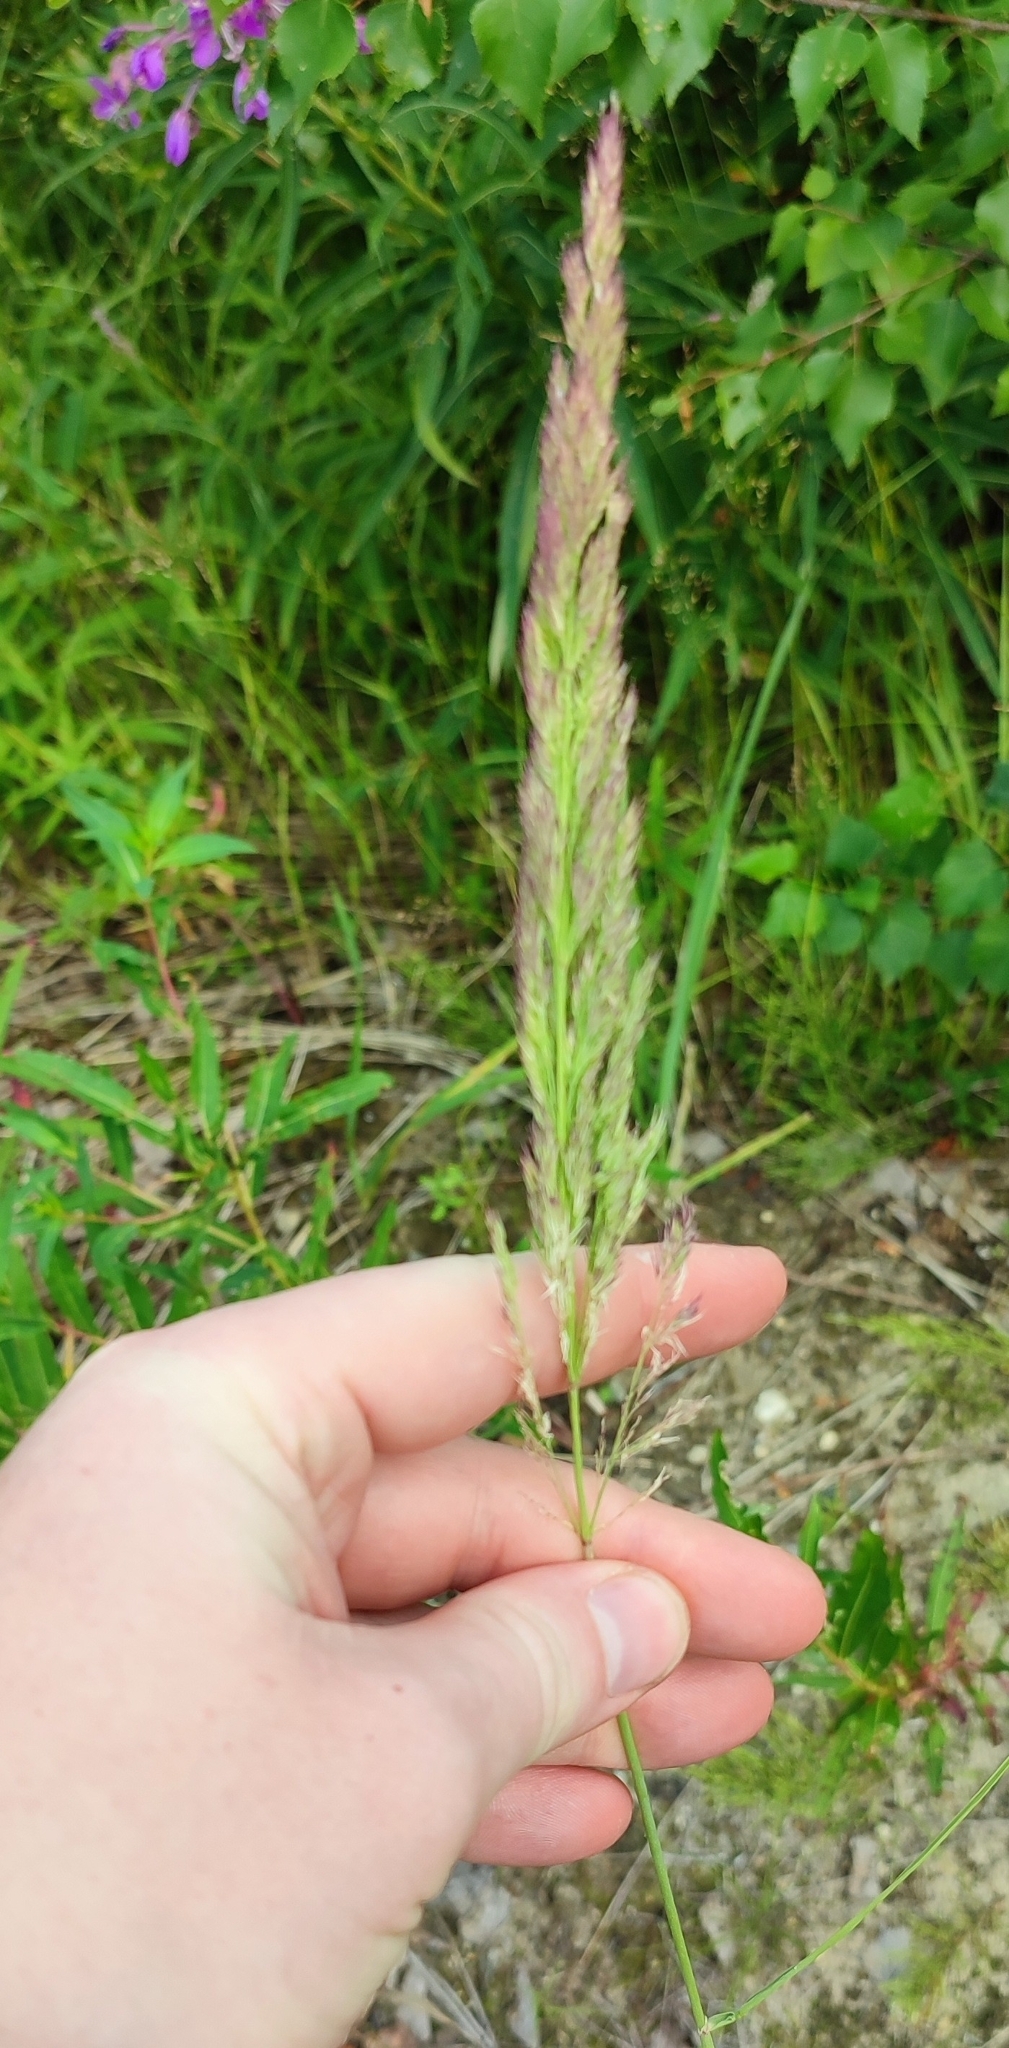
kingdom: Plantae
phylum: Tracheophyta
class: Liliopsida
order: Poales
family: Poaceae
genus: Calamagrostis
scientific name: Calamagrostis epigejos
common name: Wood small-reed
